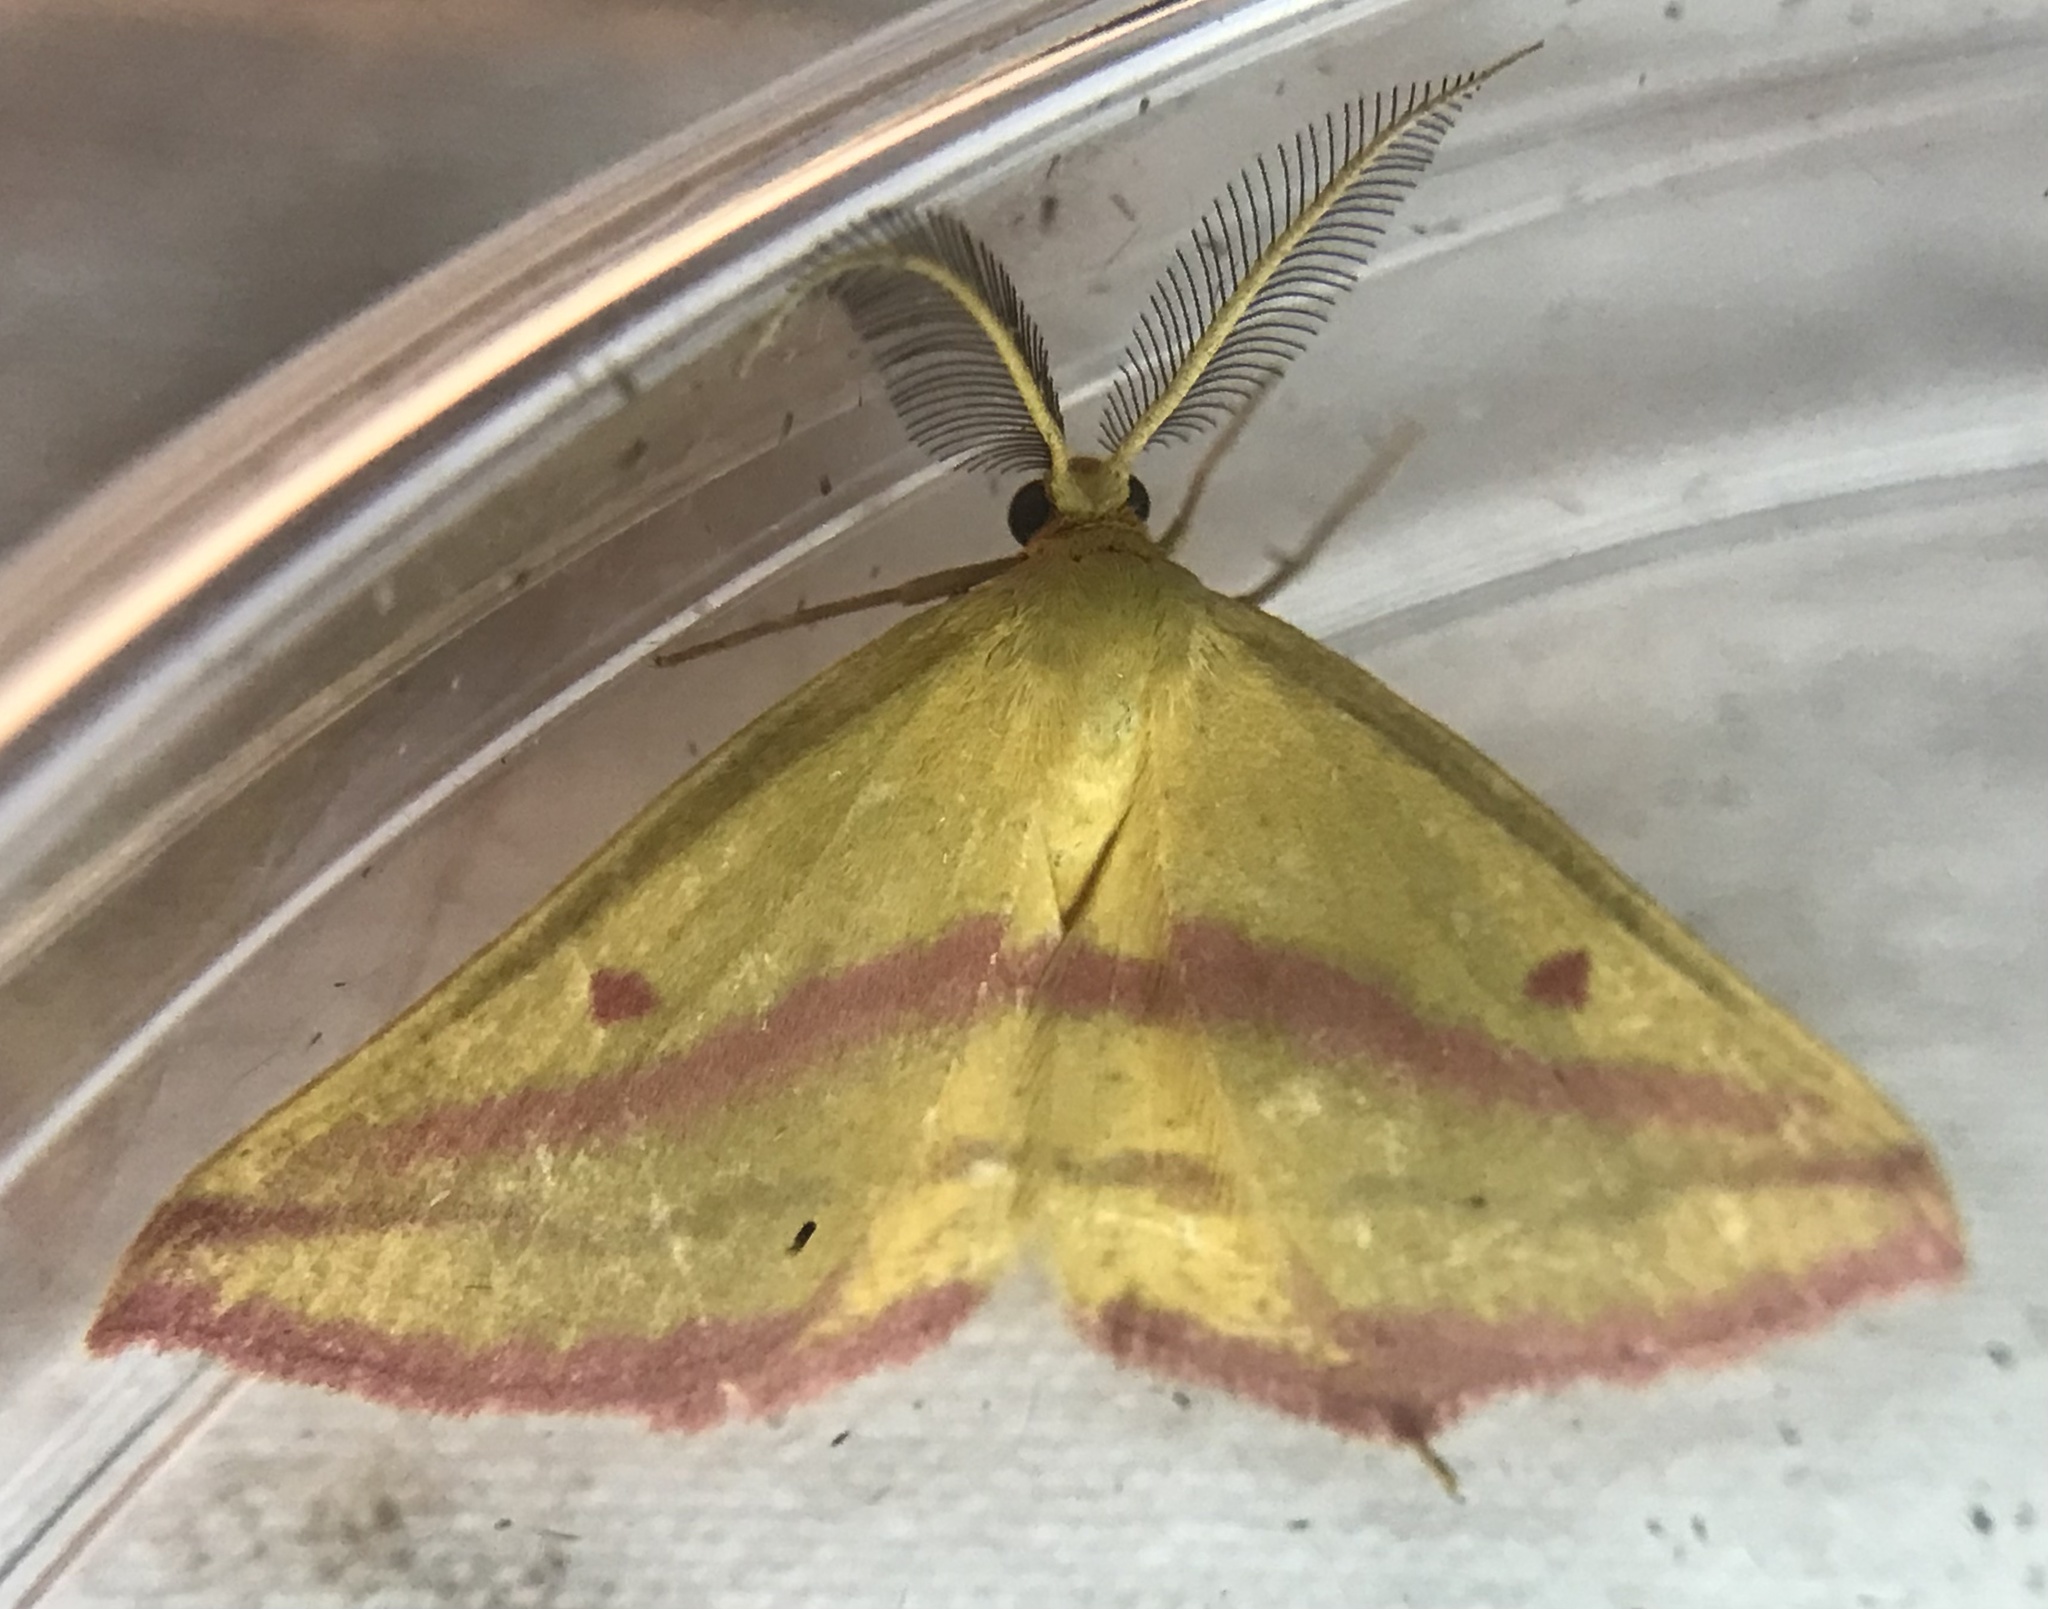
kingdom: Animalia
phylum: Arthropoda
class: Insecta
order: Lepidoptera
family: Geometridae
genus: Haematopis
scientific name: Haematopis grataria
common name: Chickweed geometer
